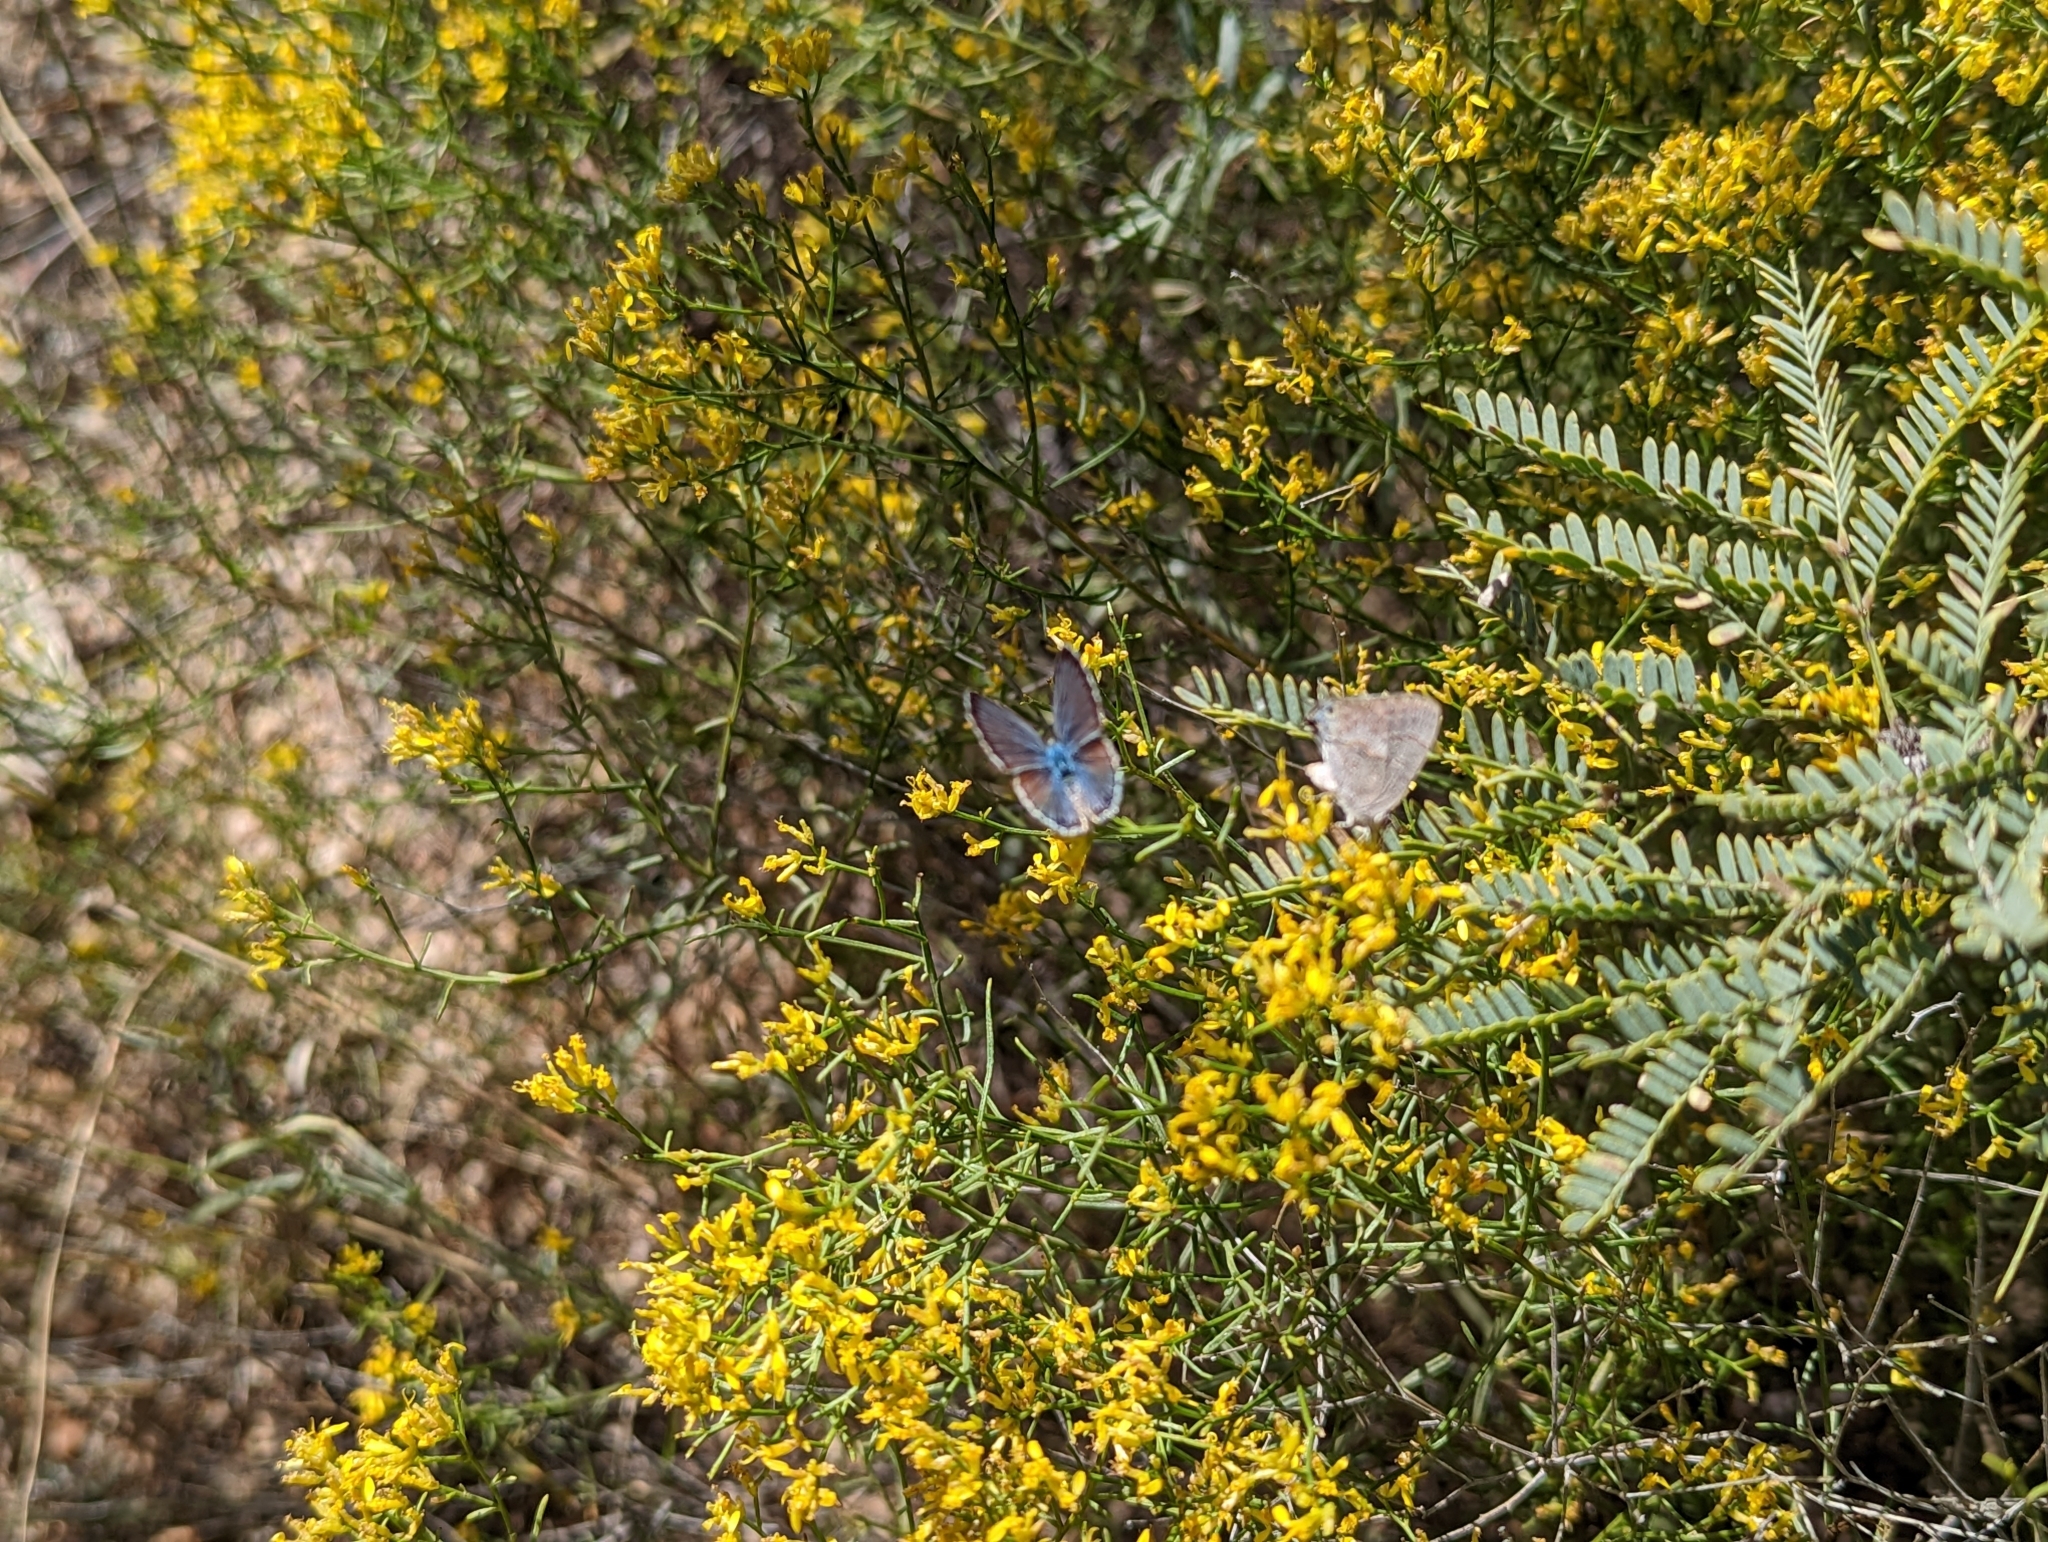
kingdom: Animalia
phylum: Arthropoda
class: Insecta
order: Lepidoptera
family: Lycaenidae
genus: Echinargus
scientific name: Echinargus isola
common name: Reakirt's blue
